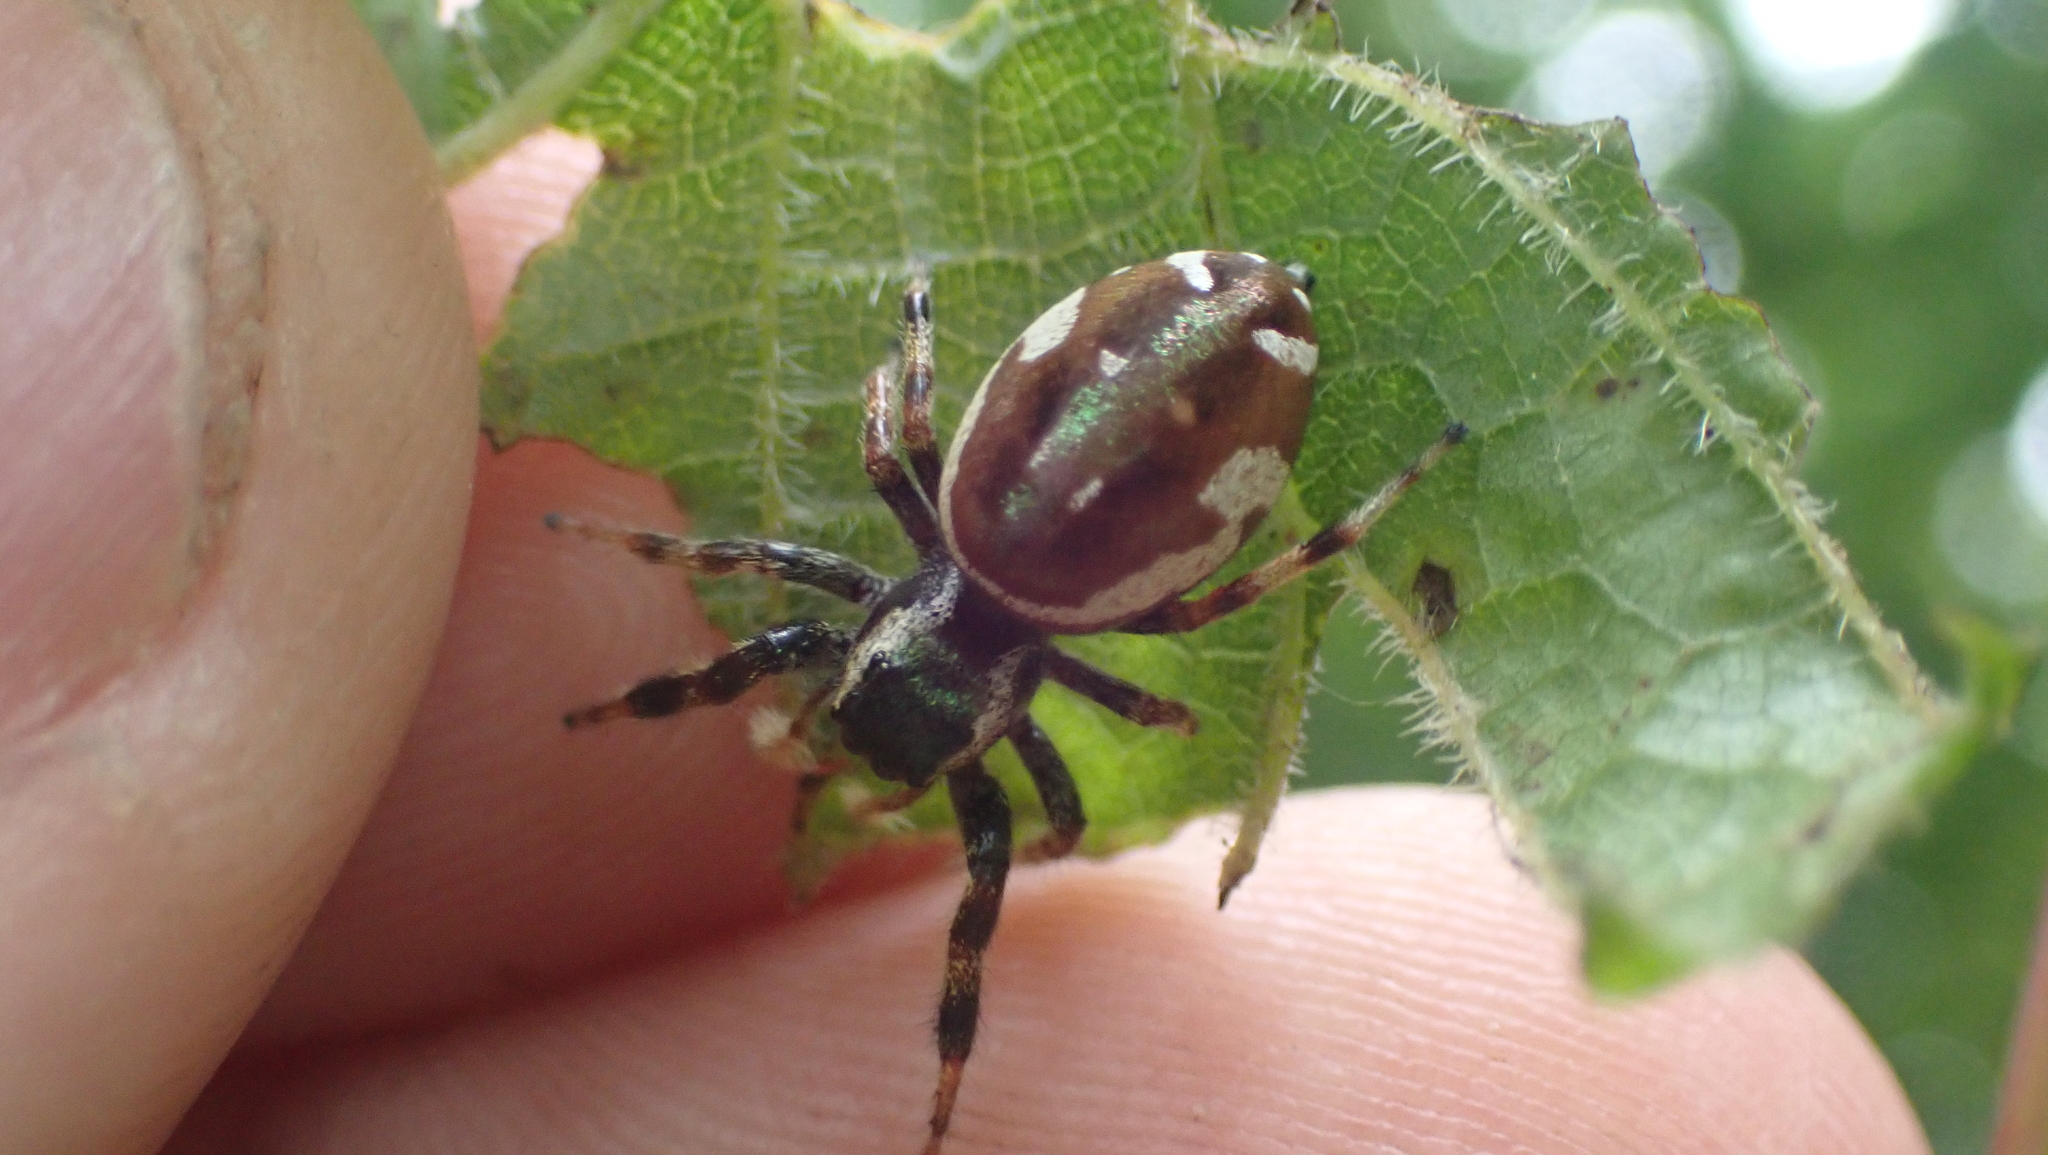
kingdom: Animalia
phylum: Arthropoda
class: Arachnida
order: Araneae
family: Salticidae
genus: Paraphidippus
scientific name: Paraphidippus aurantius
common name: Jumping spiders
